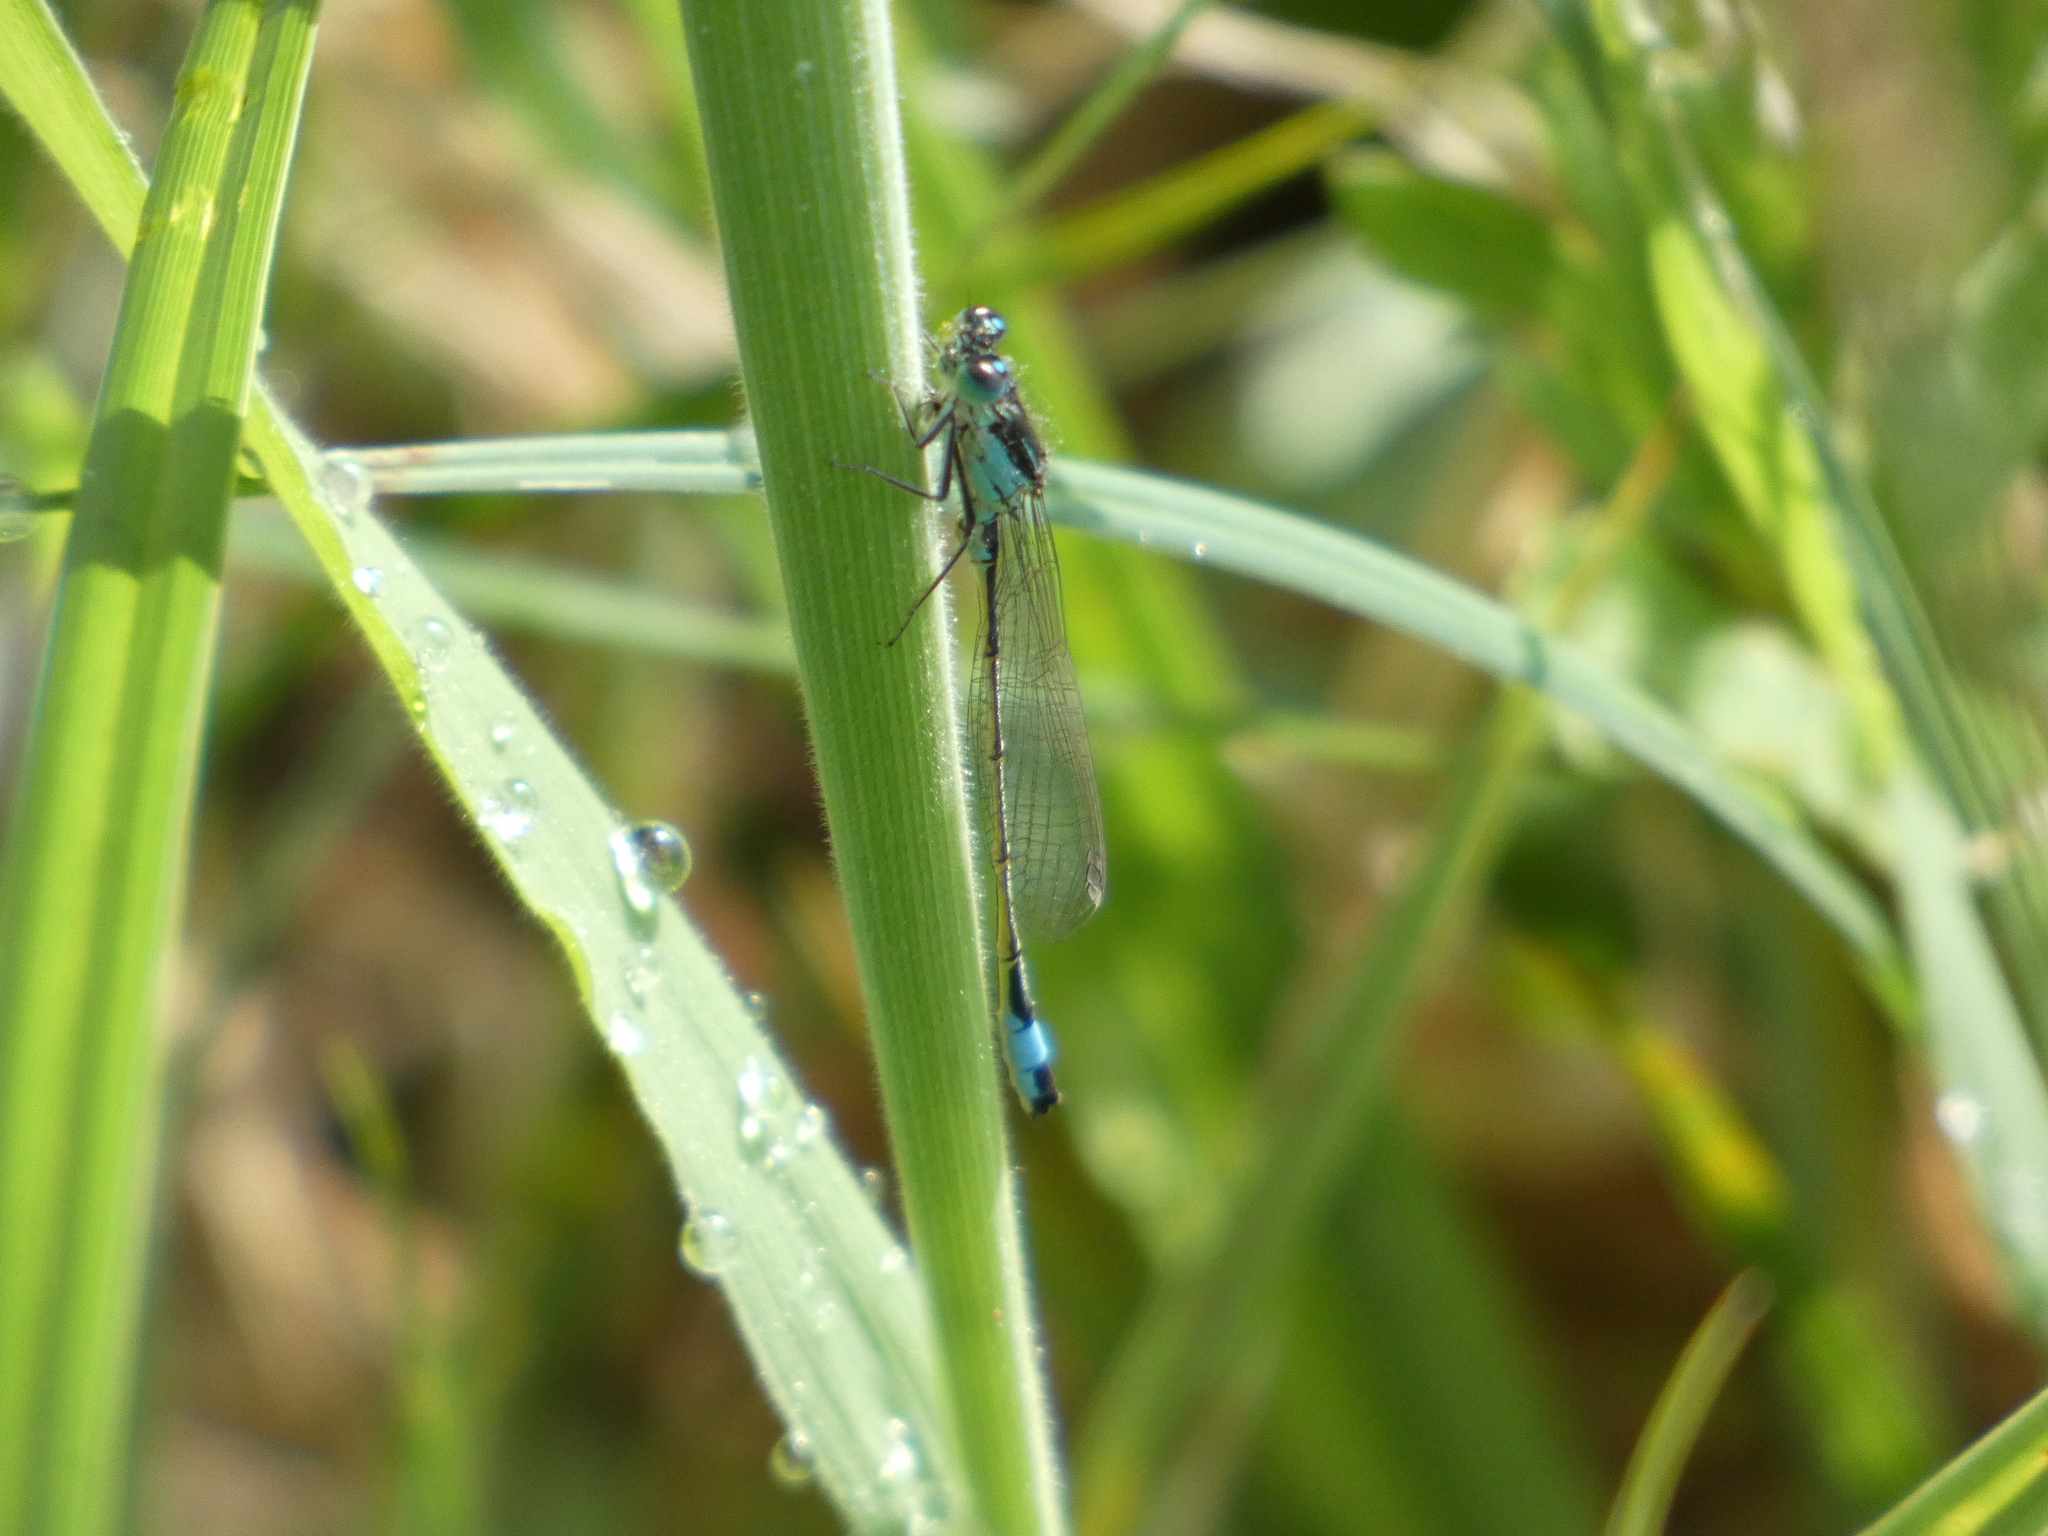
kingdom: Animalia
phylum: Arthropoda
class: Insecta
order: Odonata
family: Coenagrionidae
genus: Ischnura
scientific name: Ischnura elegans
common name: Blue-tailed damselfly
